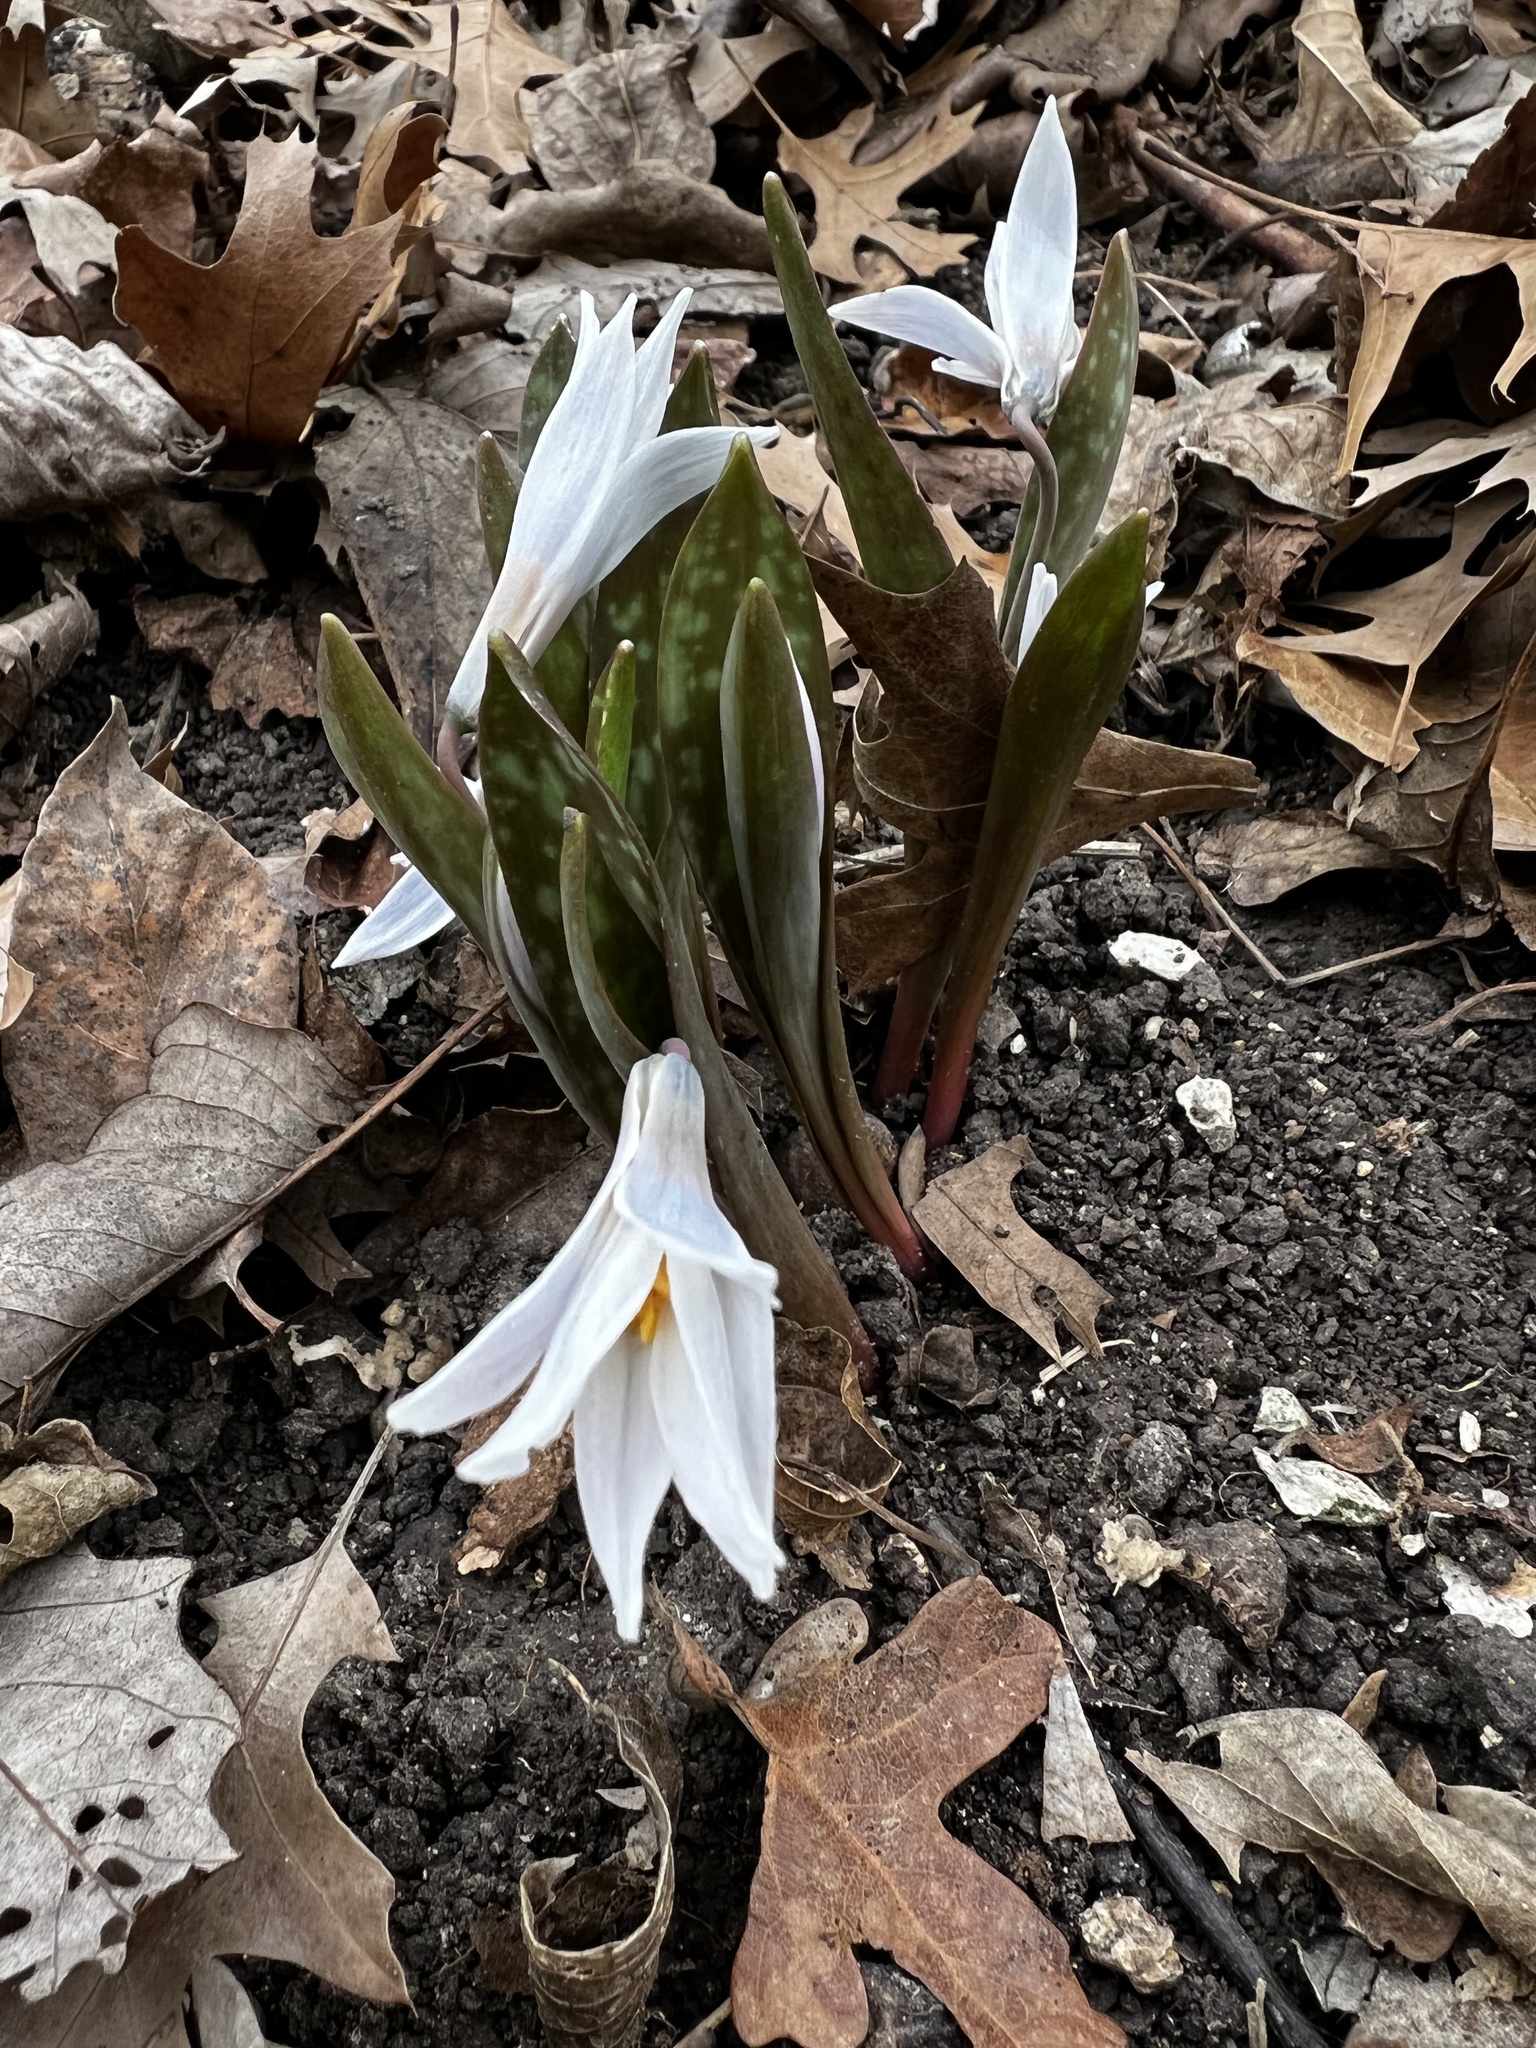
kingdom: Plantae
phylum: Tracheophyta
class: Liliopsida
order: Liliales
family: Liliaceae
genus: Erythronium
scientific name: Erythronium albidum
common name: White trout-lily
